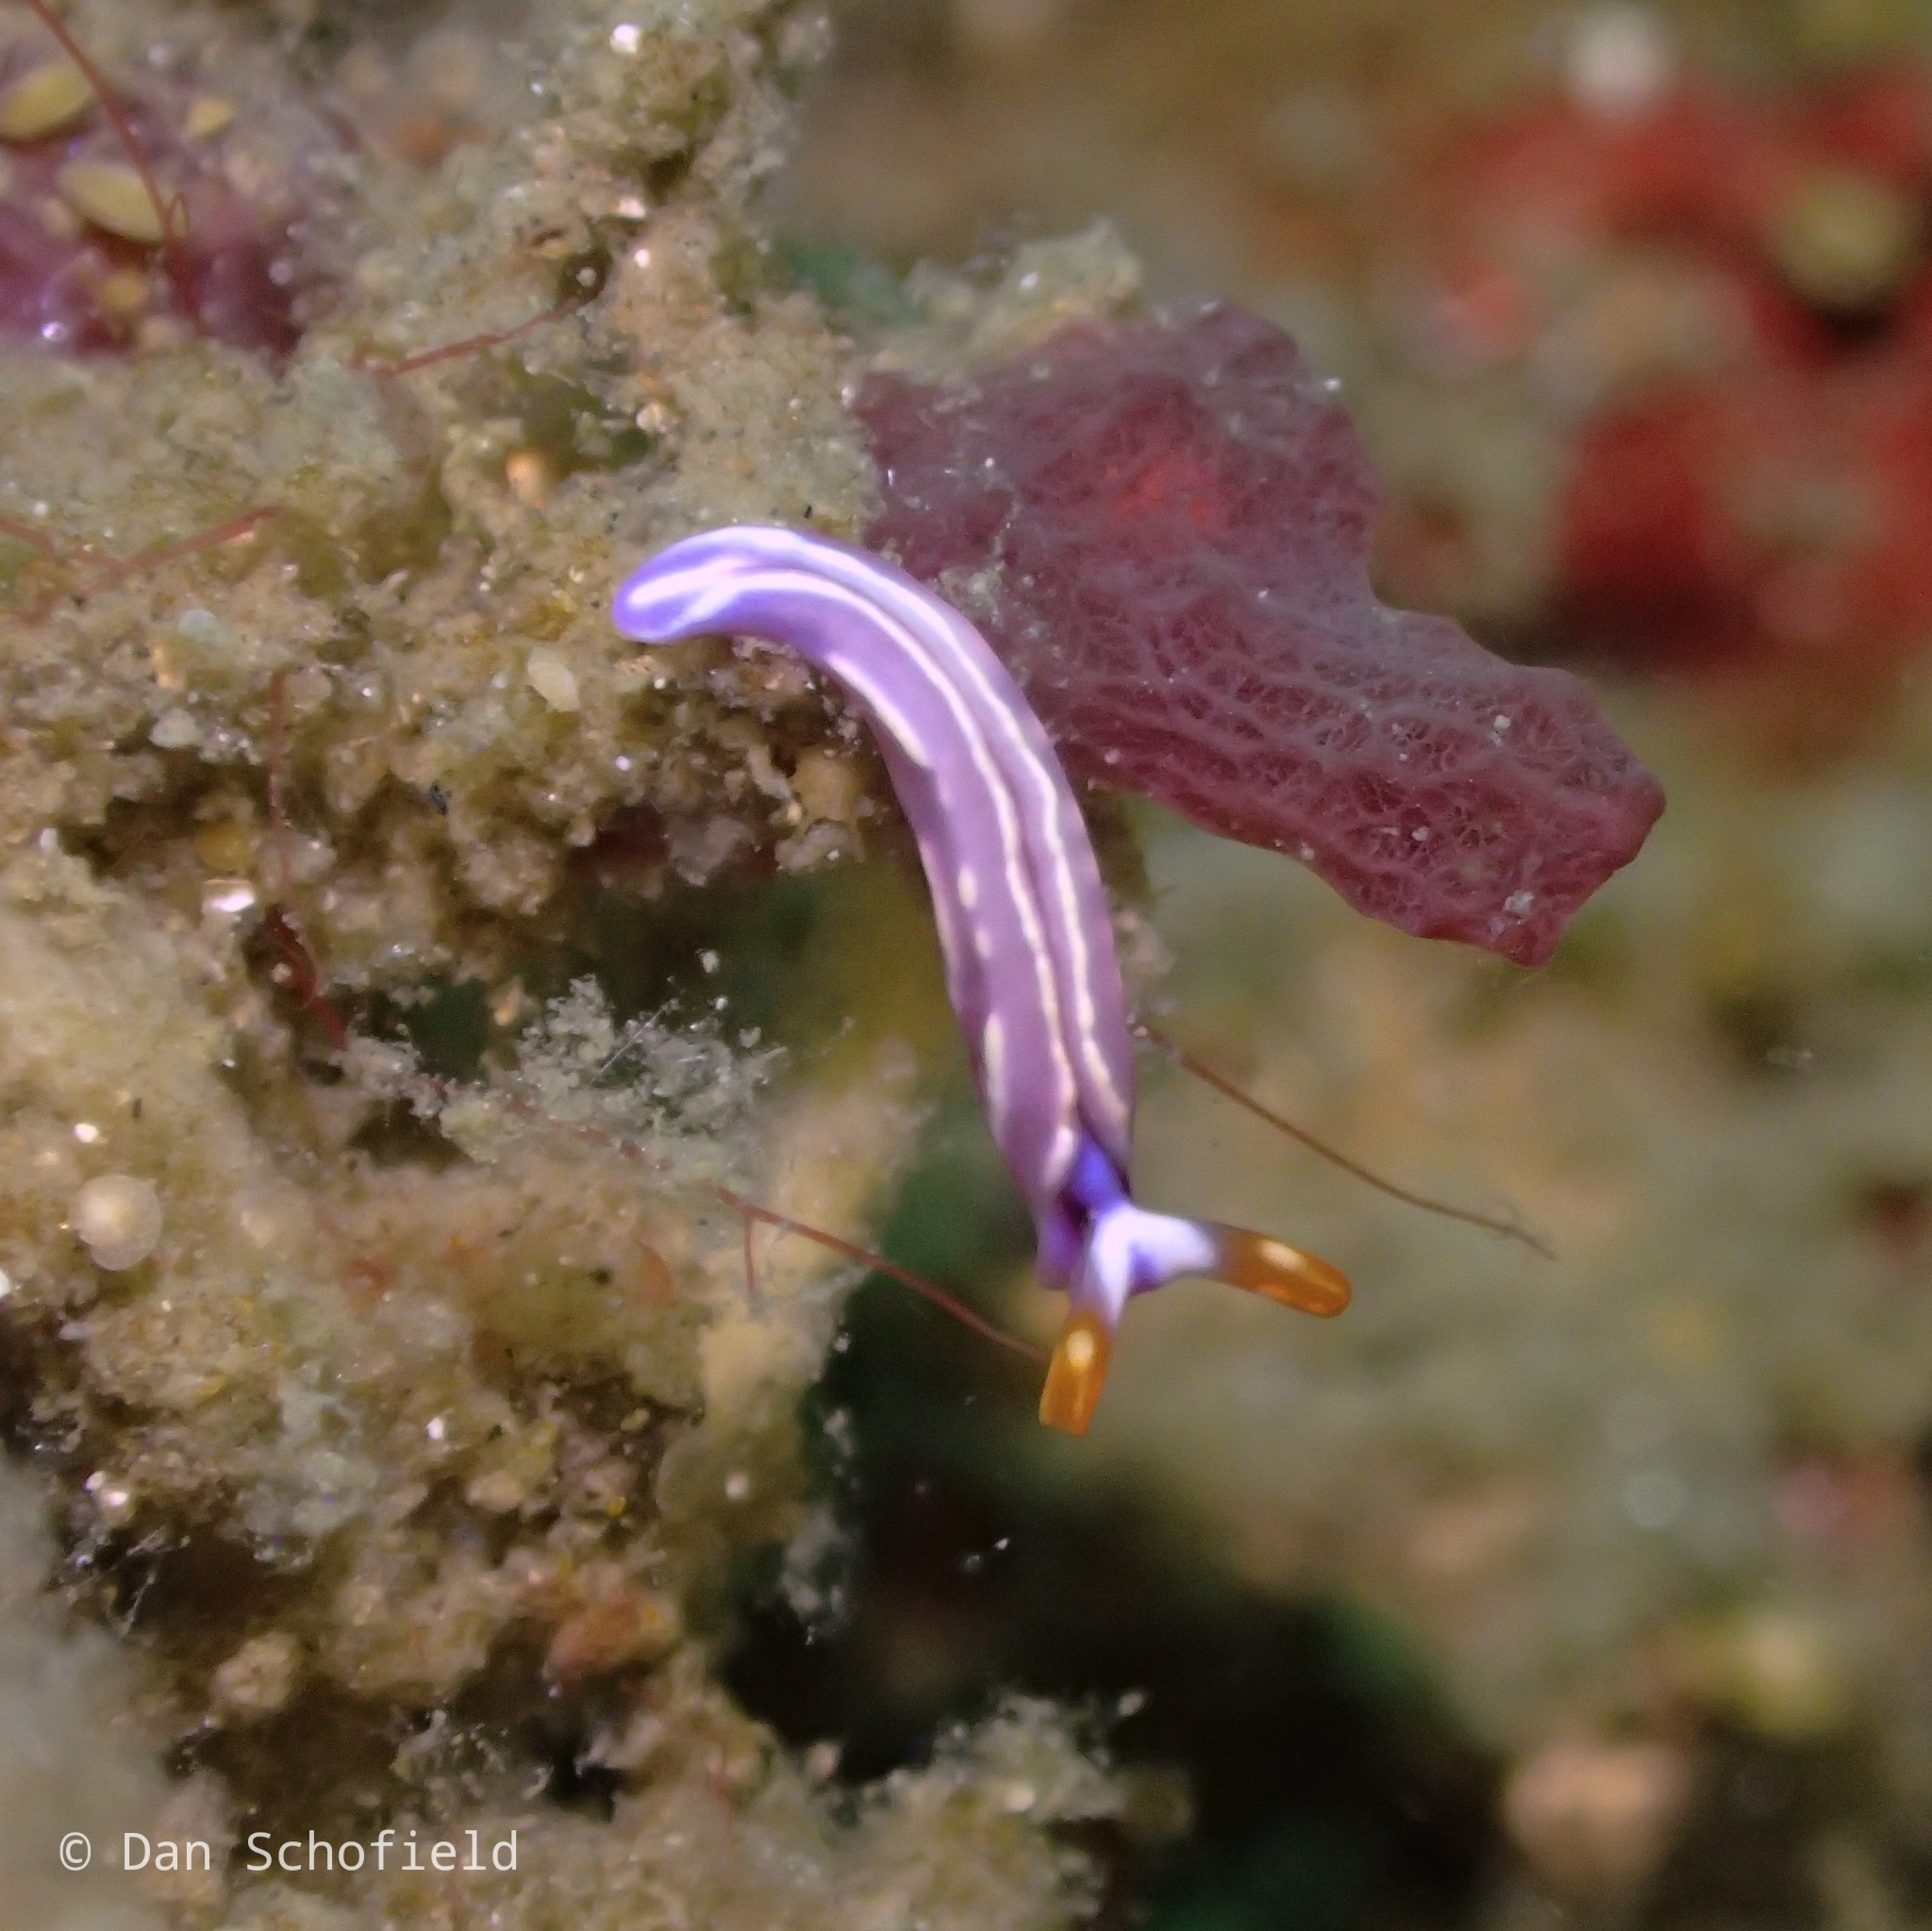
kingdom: Animalia
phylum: Mollusca
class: Gastropoda
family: Plakobranchidae
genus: Thuridilla
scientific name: Thuridilla albopustulosa
